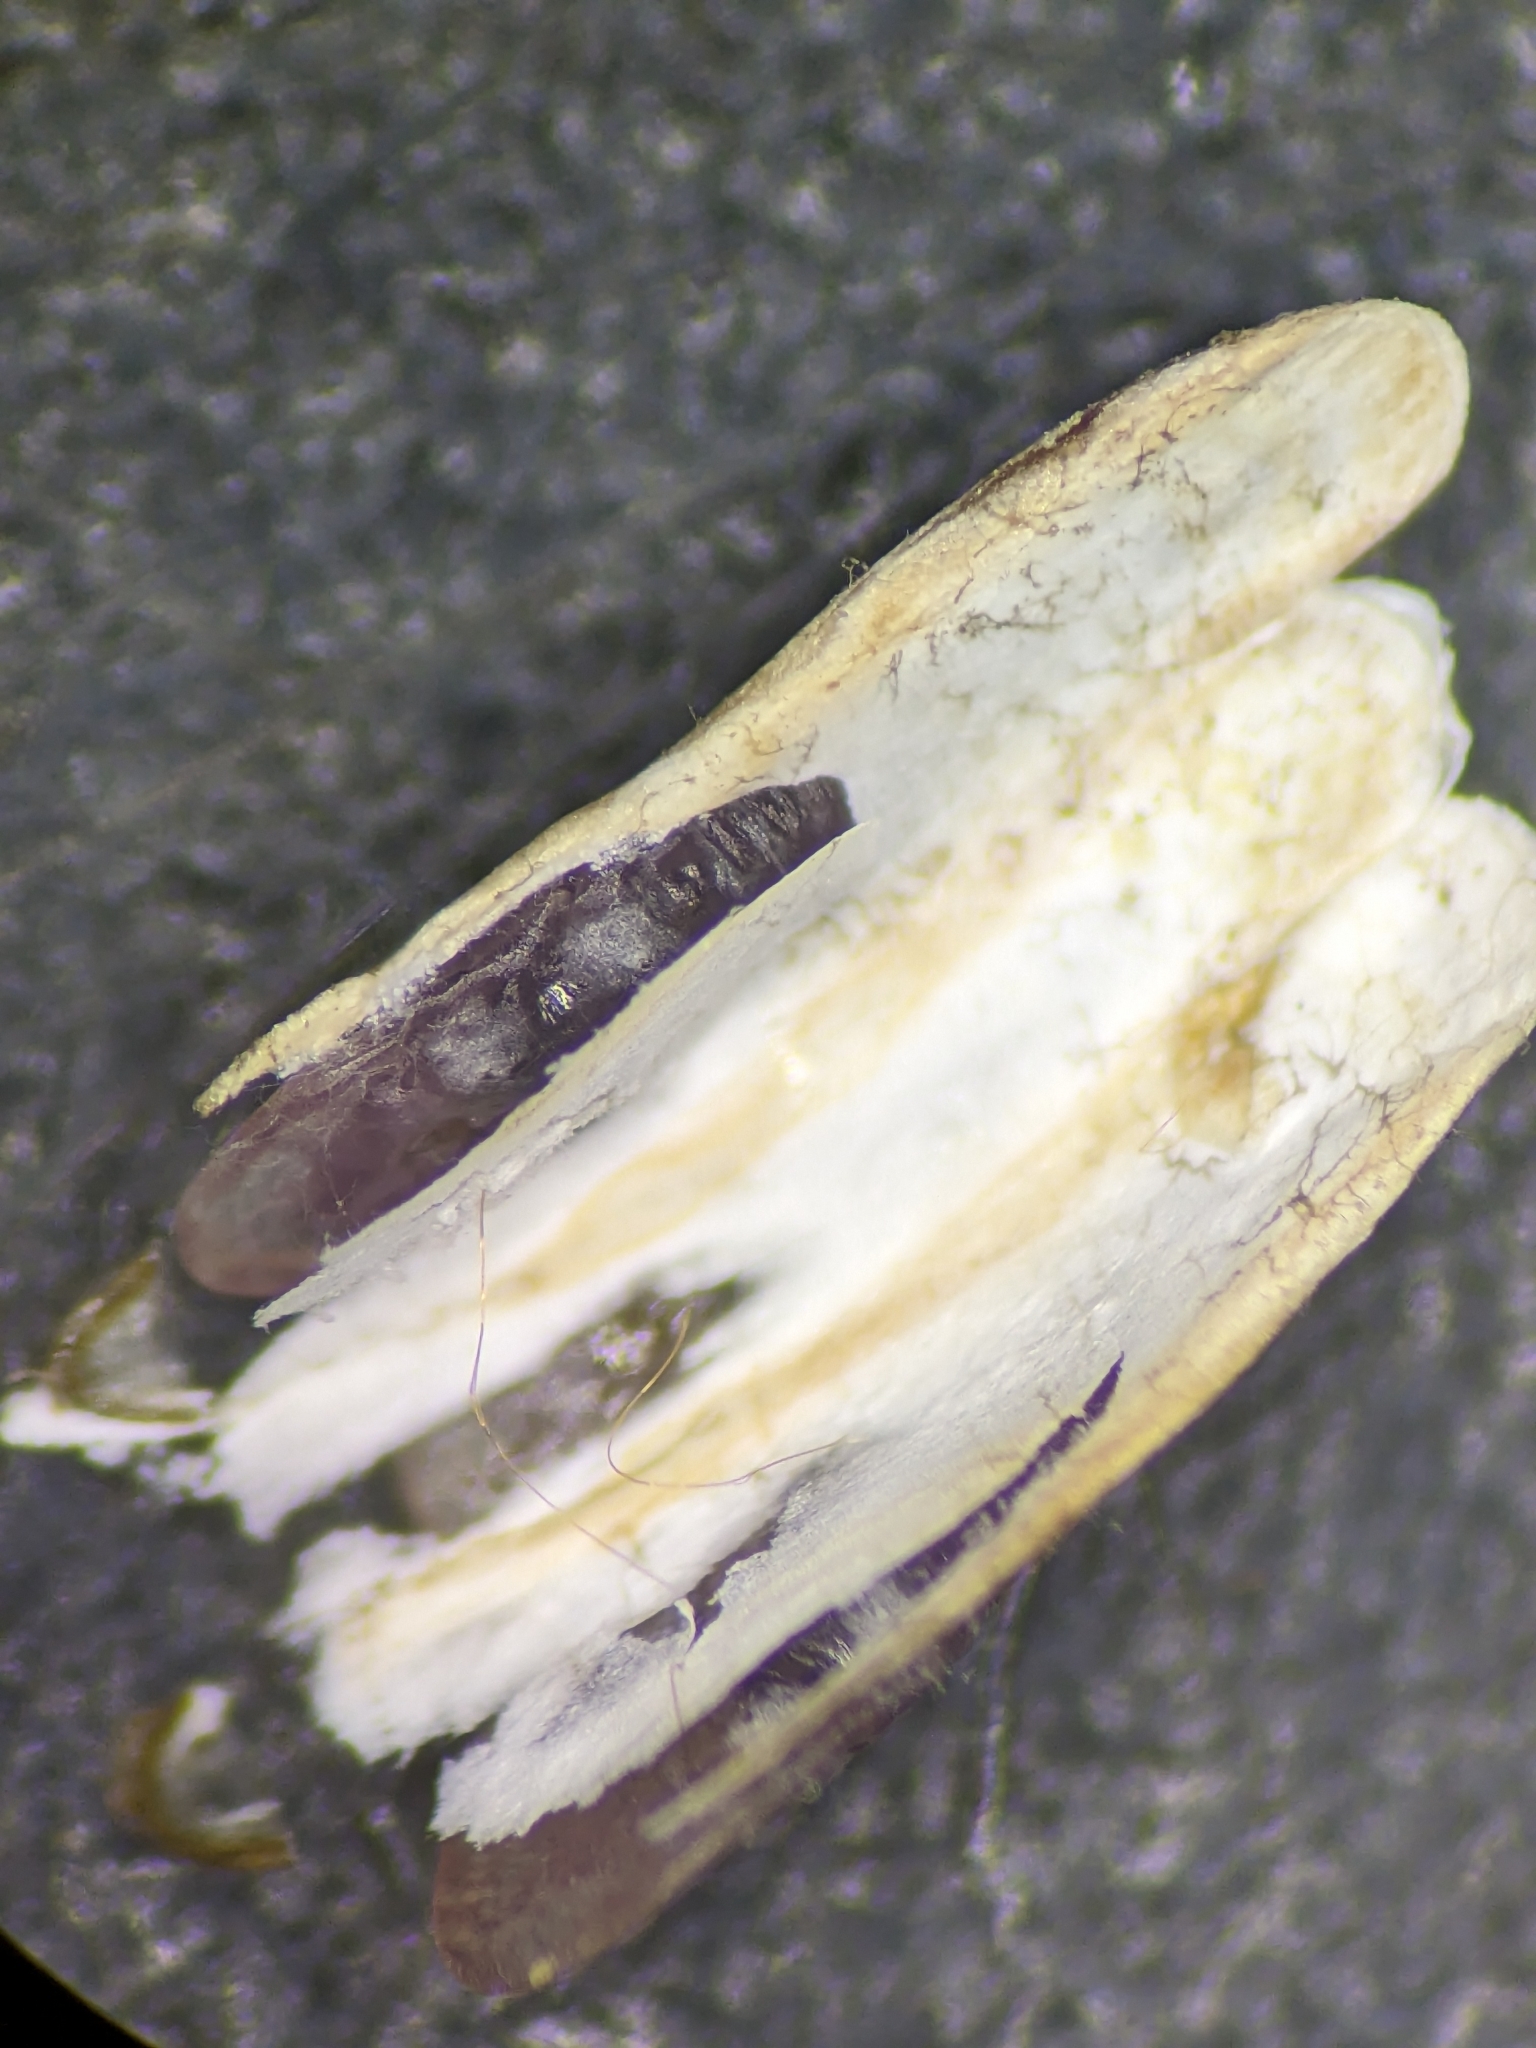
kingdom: Animalia
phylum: Arthropoda
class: Insecta
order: Hemiptera
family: Diaspididae
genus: Poliaspoides
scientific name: Poliaspoides leptocarpi
